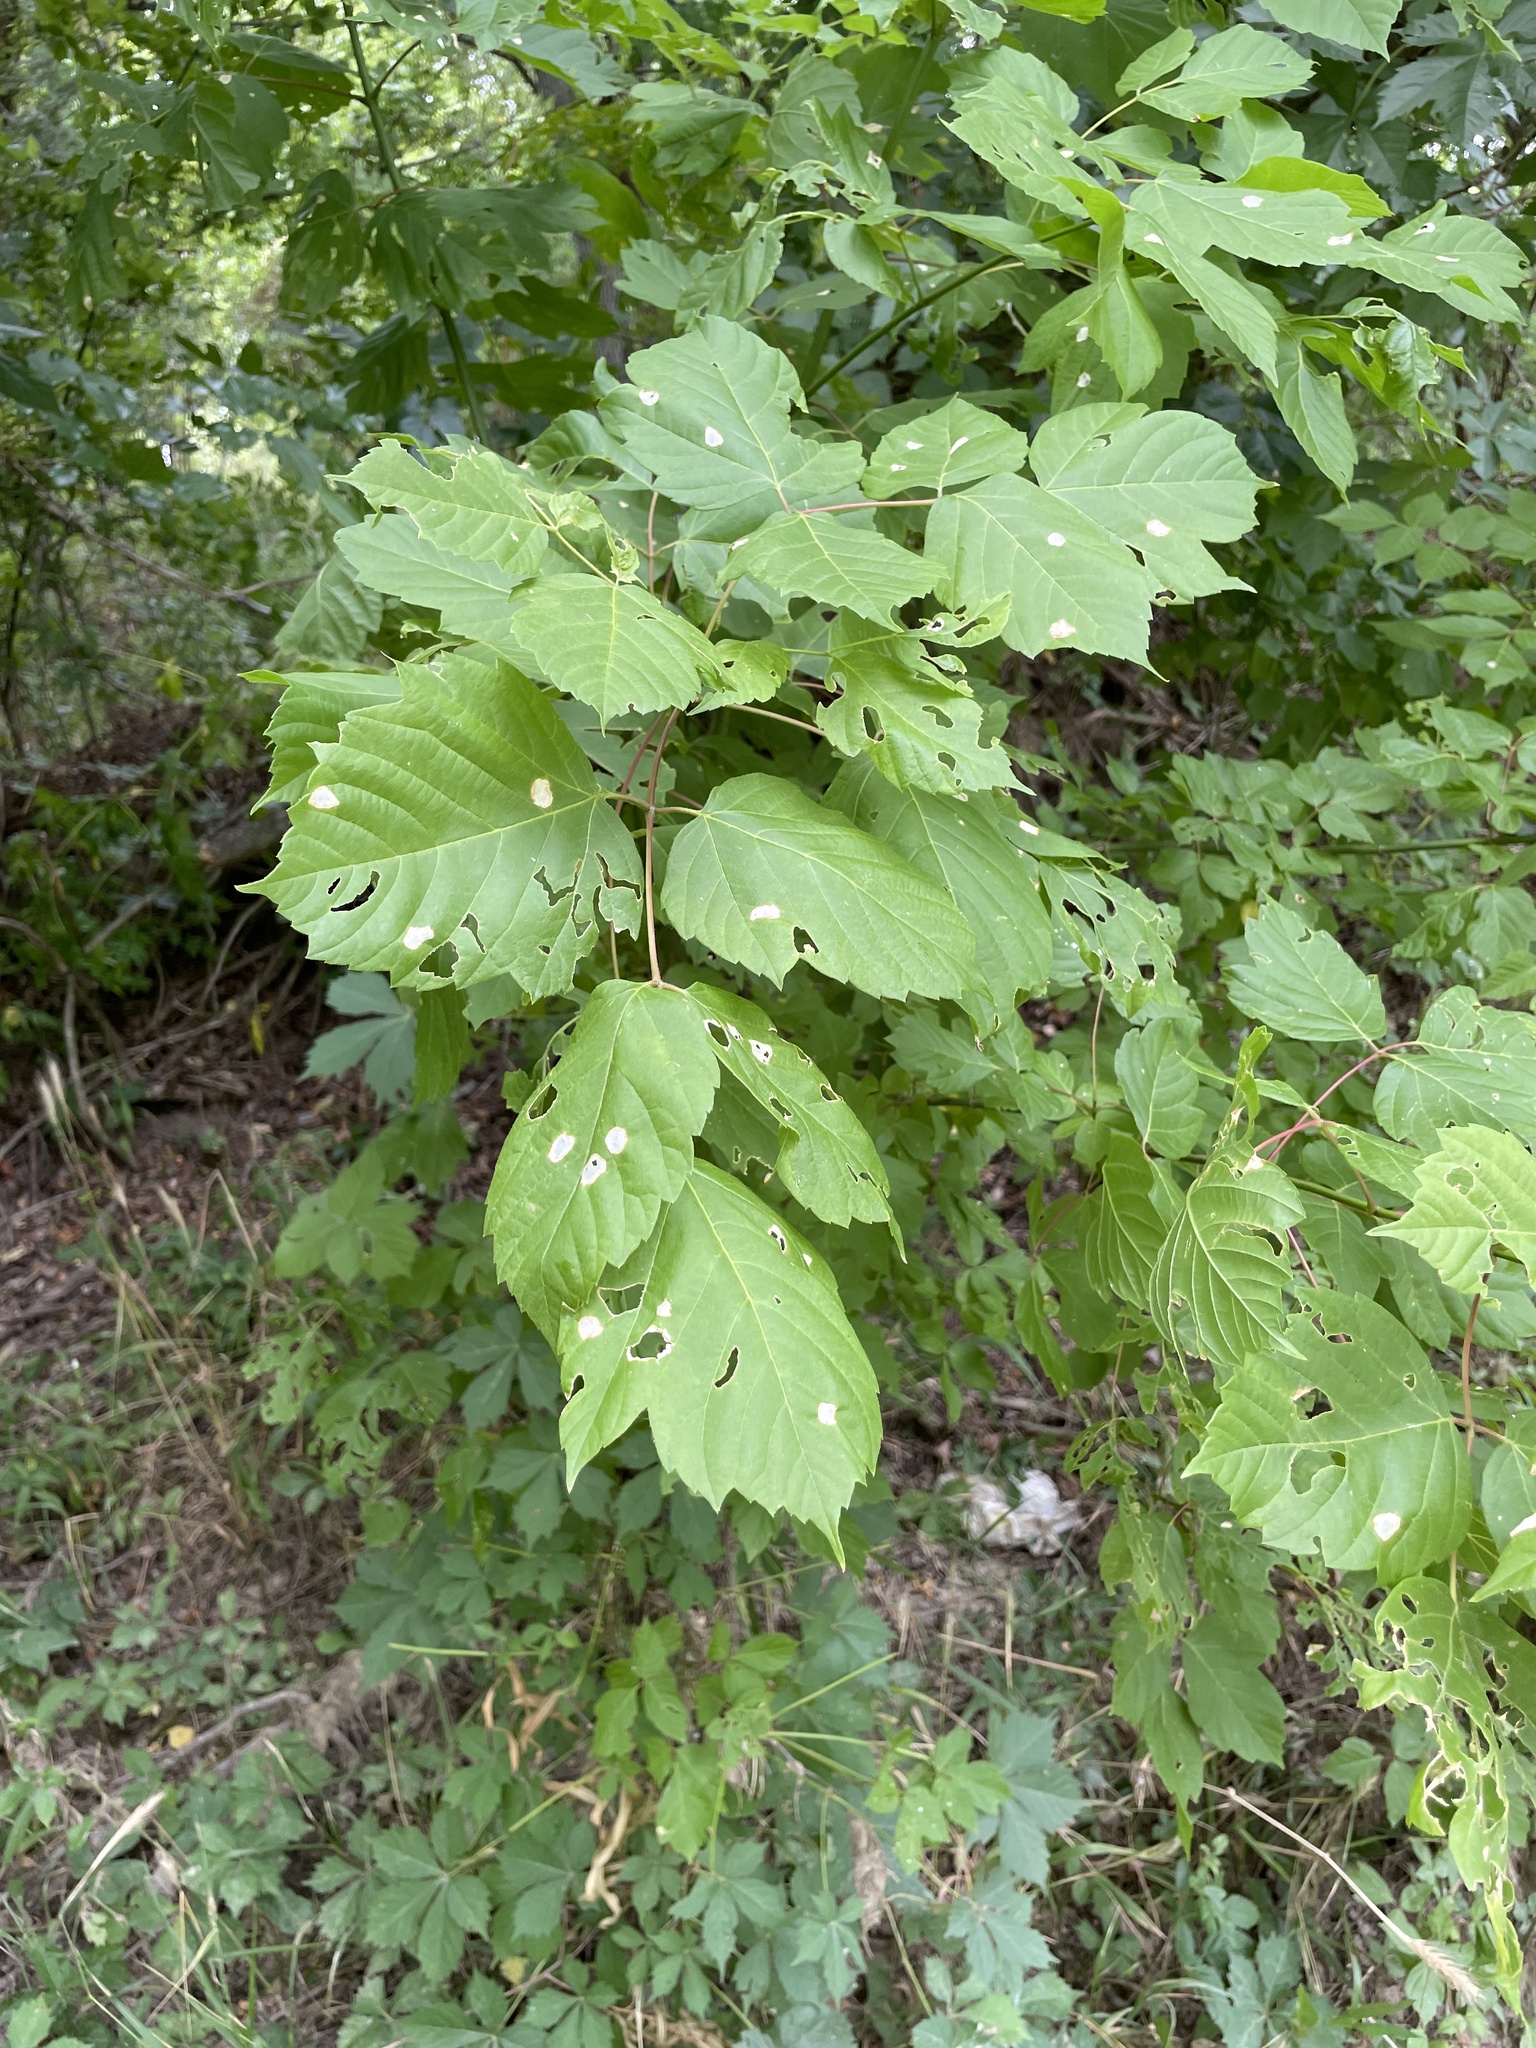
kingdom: Plantae
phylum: Tracheophyta
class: Magnoliopsida
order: Sapindales
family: Sapindaceae
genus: Acer
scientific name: Acer negundo
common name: Ashleaf maple
